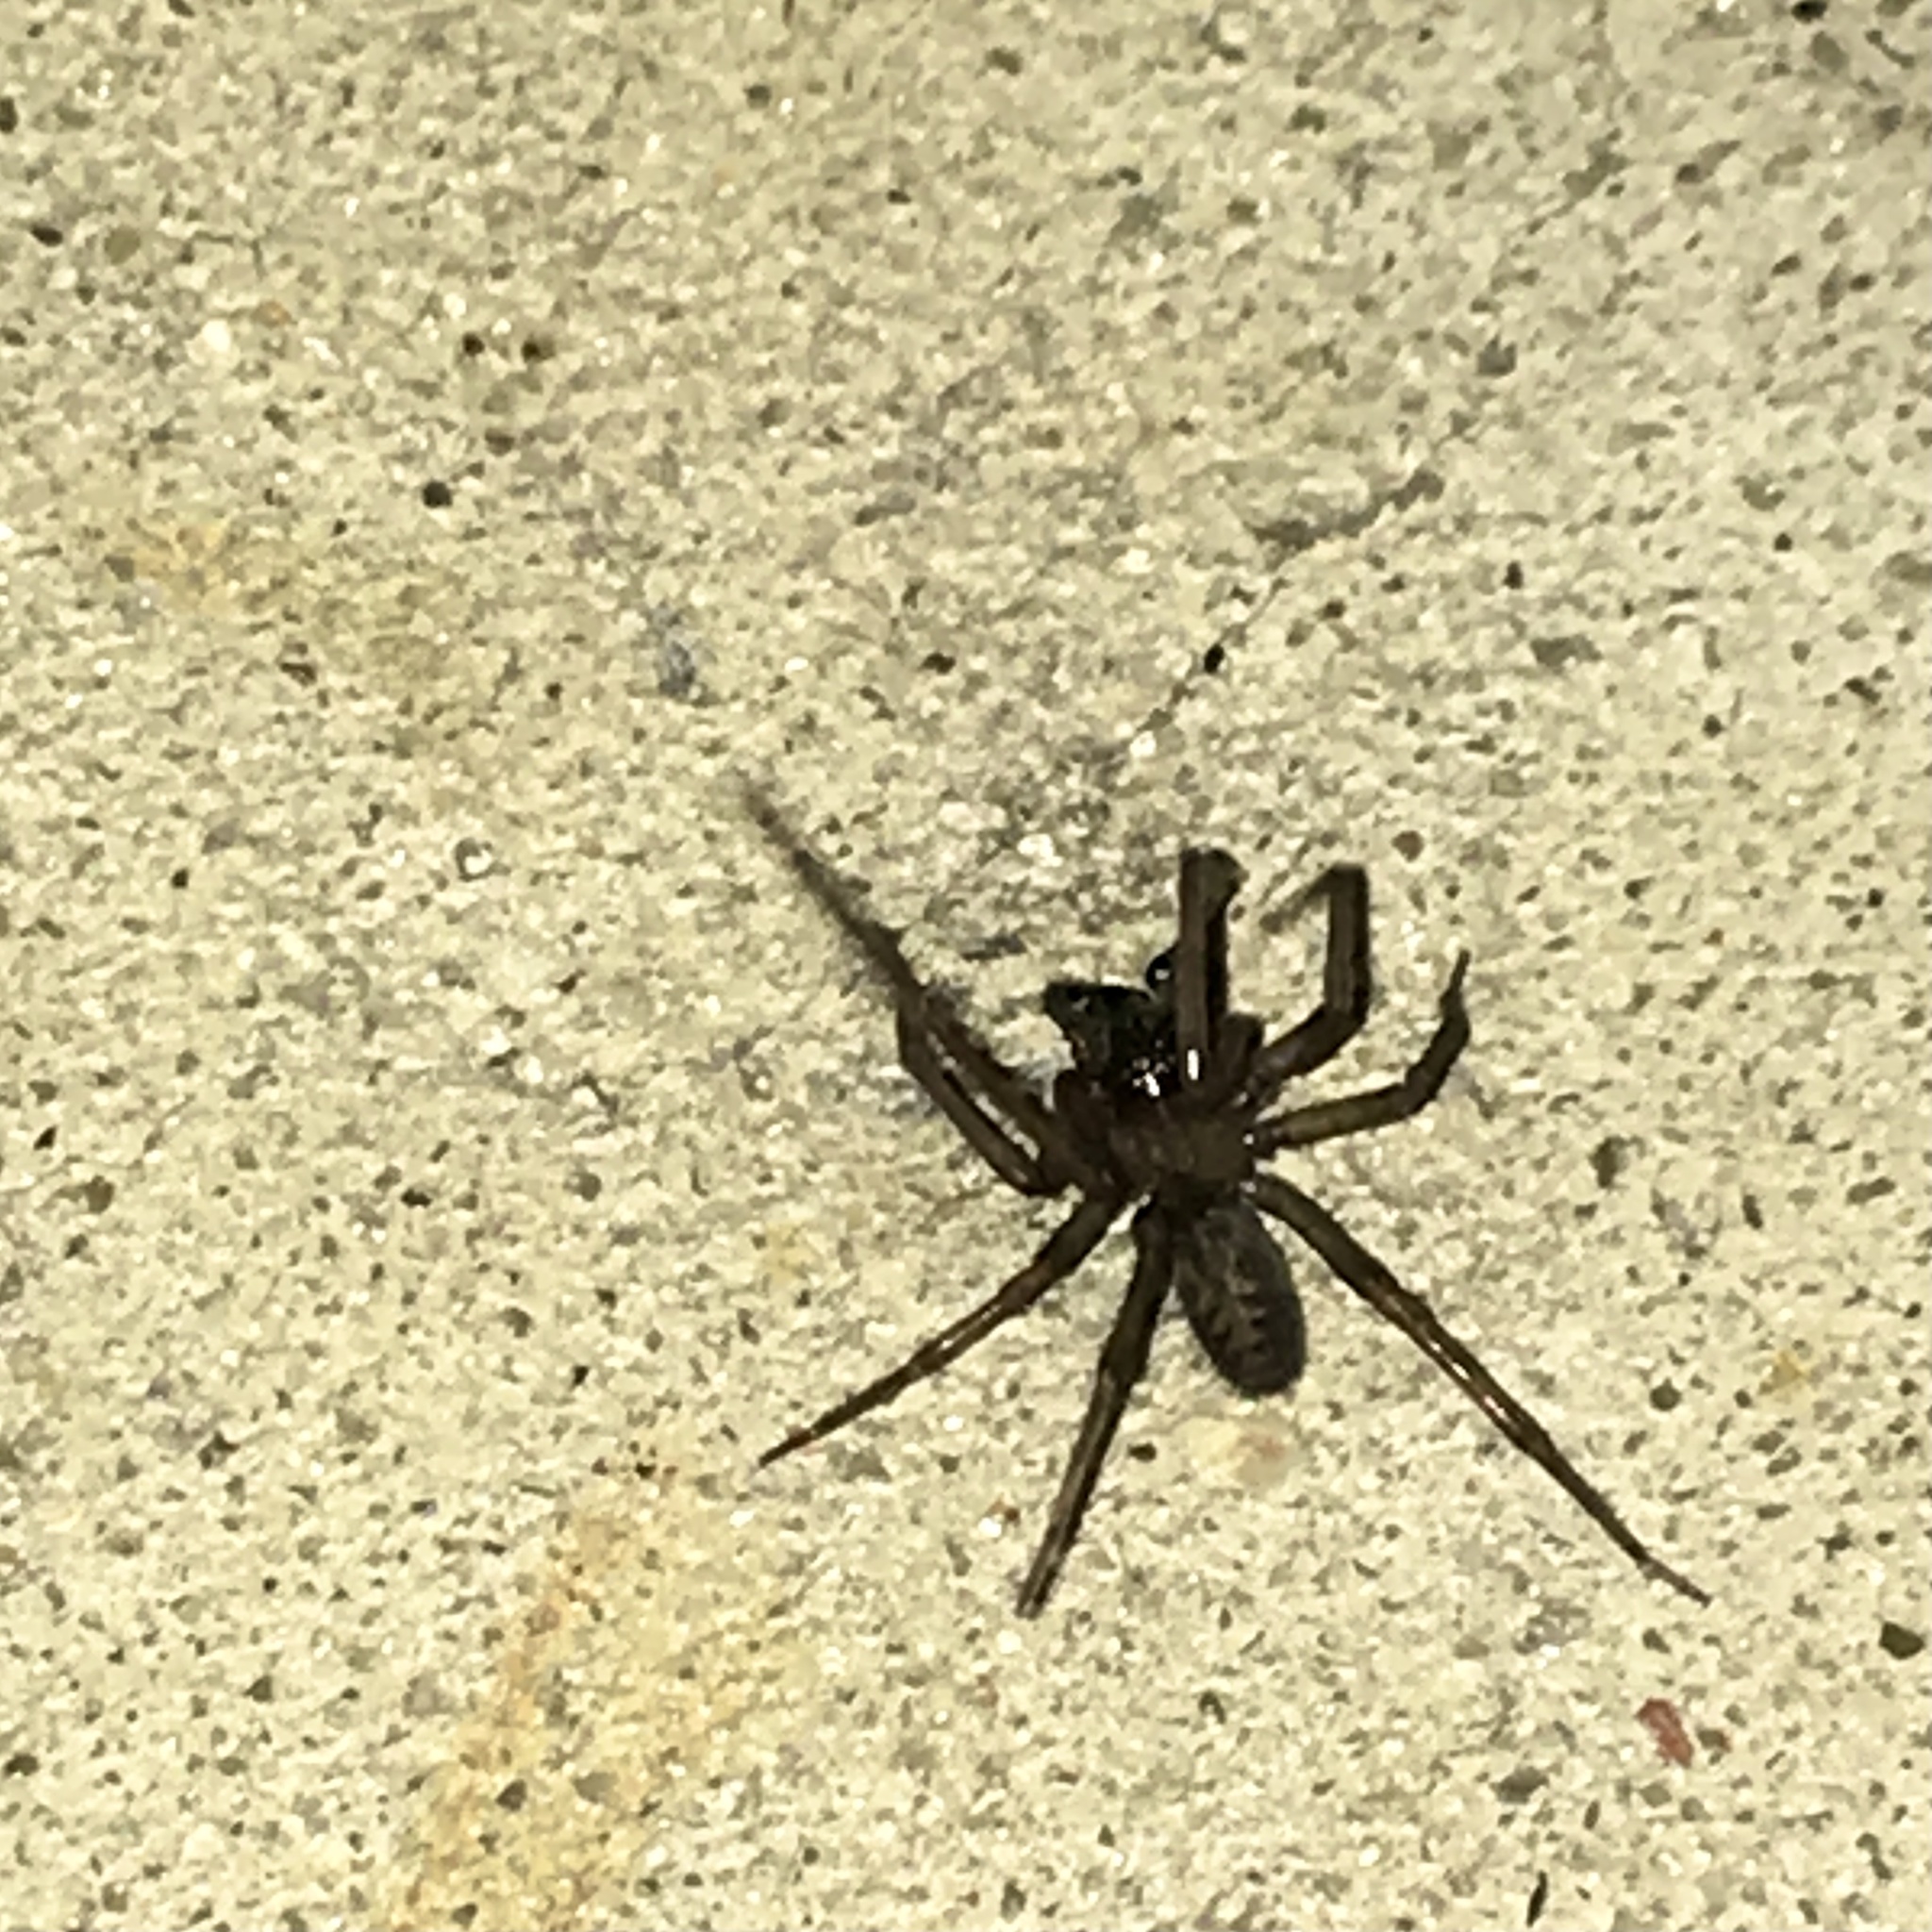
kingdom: Animalia
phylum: Arthropoda
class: Arachnida
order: Araneae
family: Desidae
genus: Metaltella
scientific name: Metaltella simoni
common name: Cribellate spider
